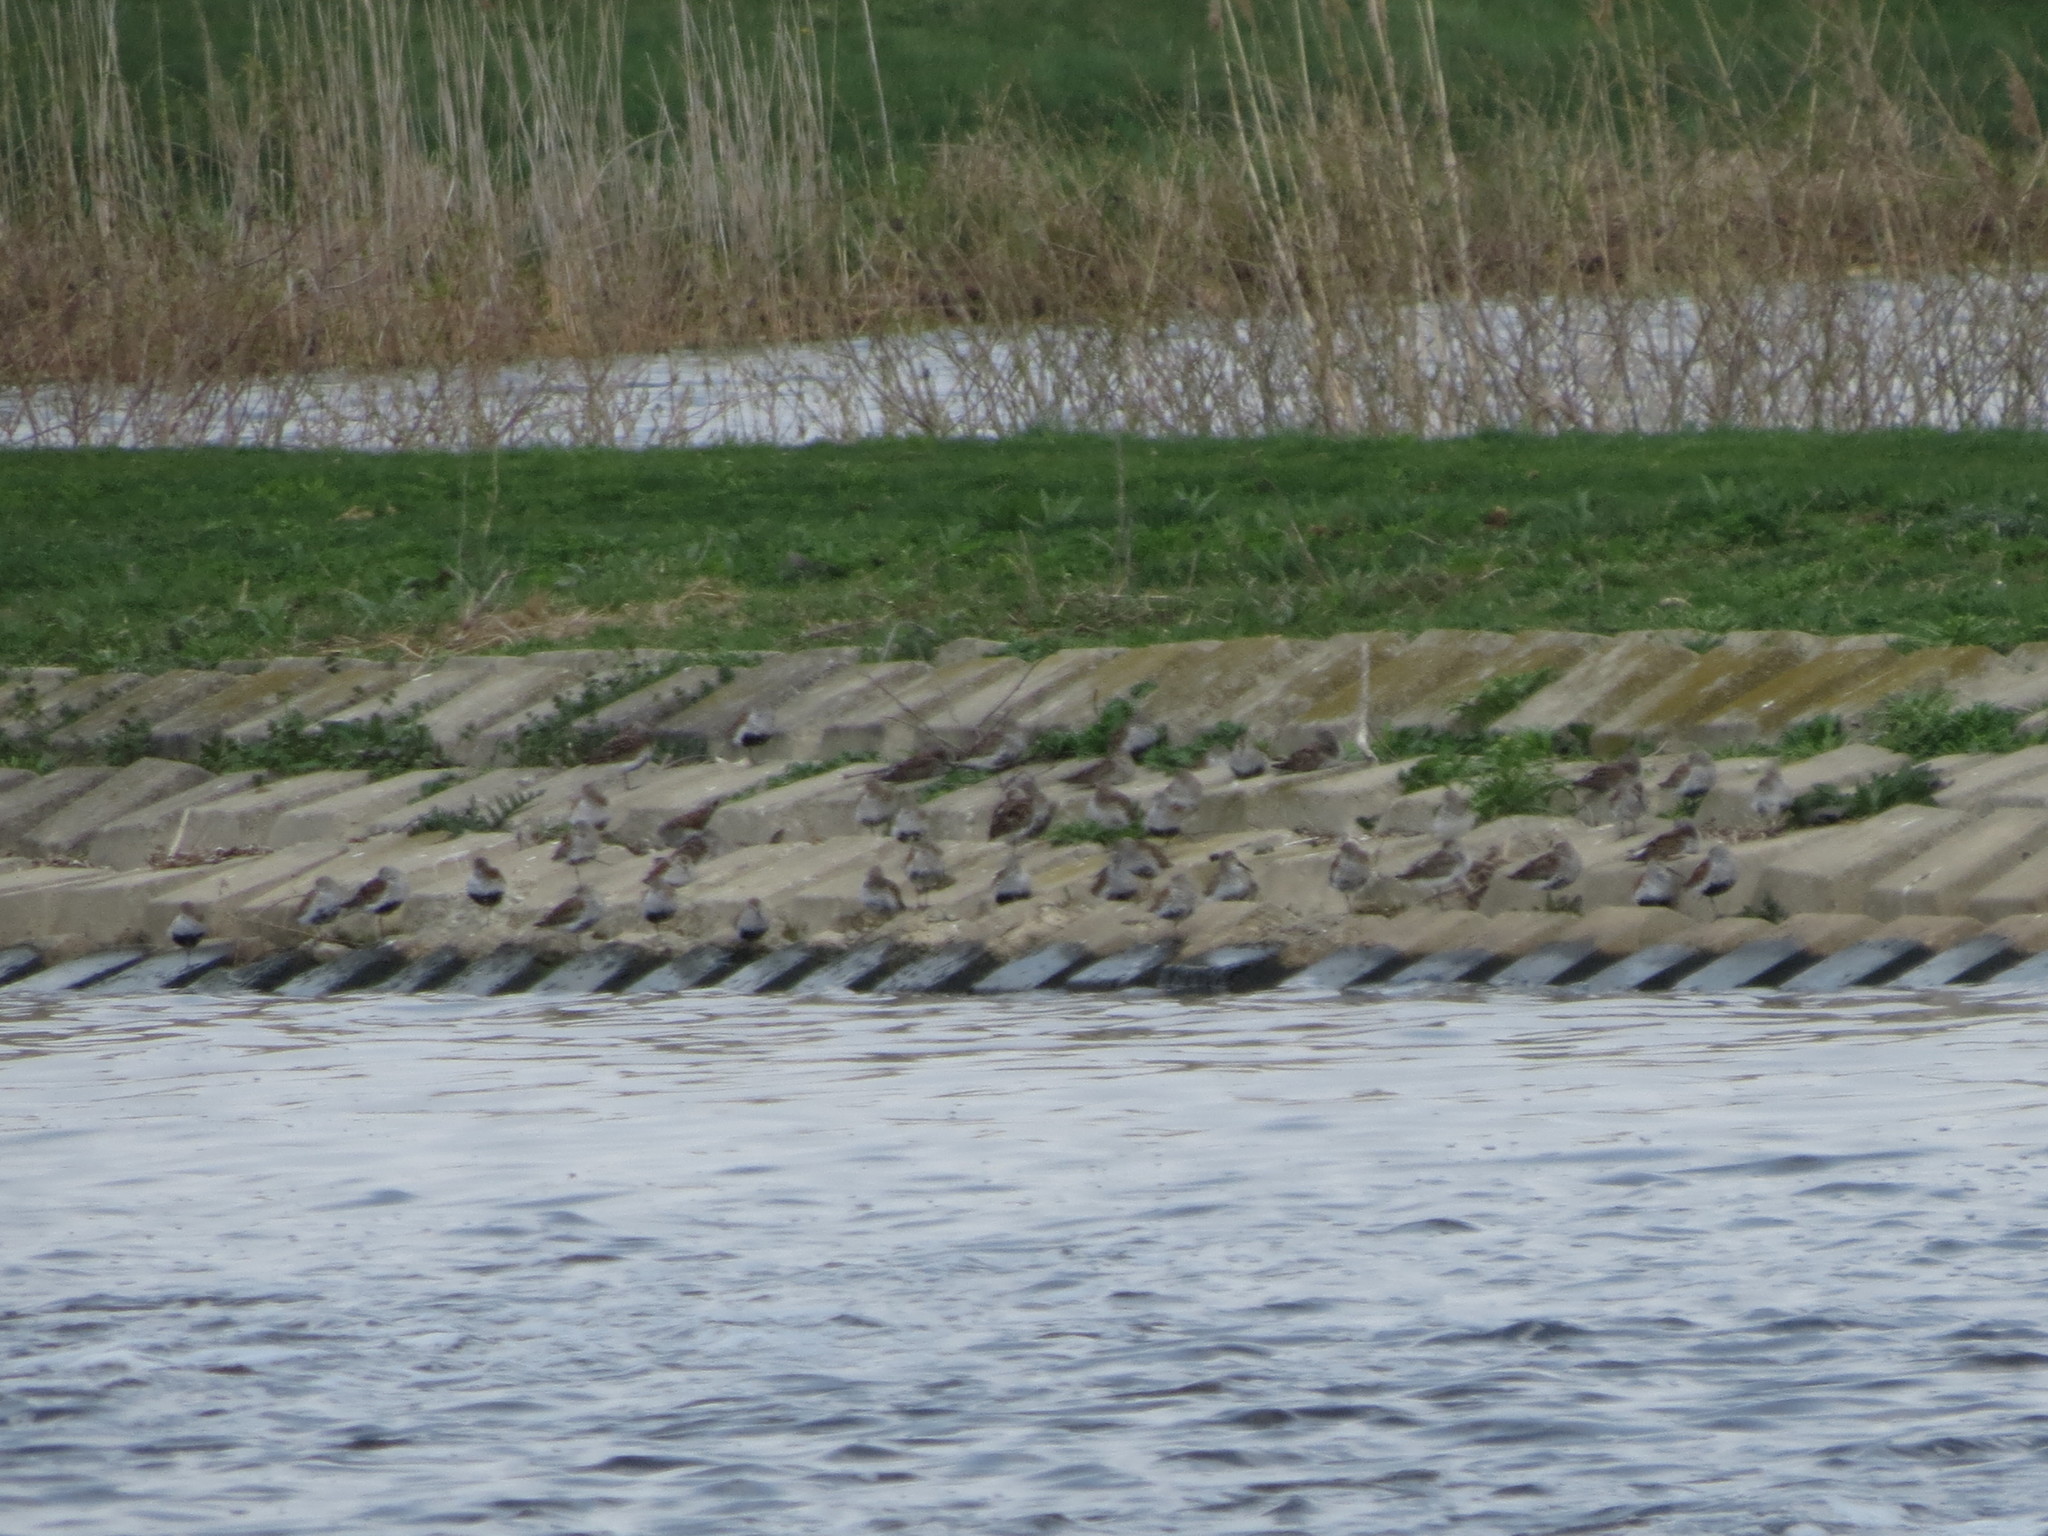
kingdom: Animalia
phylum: Chordata
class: Aves
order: Charadriiformes
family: Scolopacidae
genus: Calidris
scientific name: Calidris alpina
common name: Dunlin
